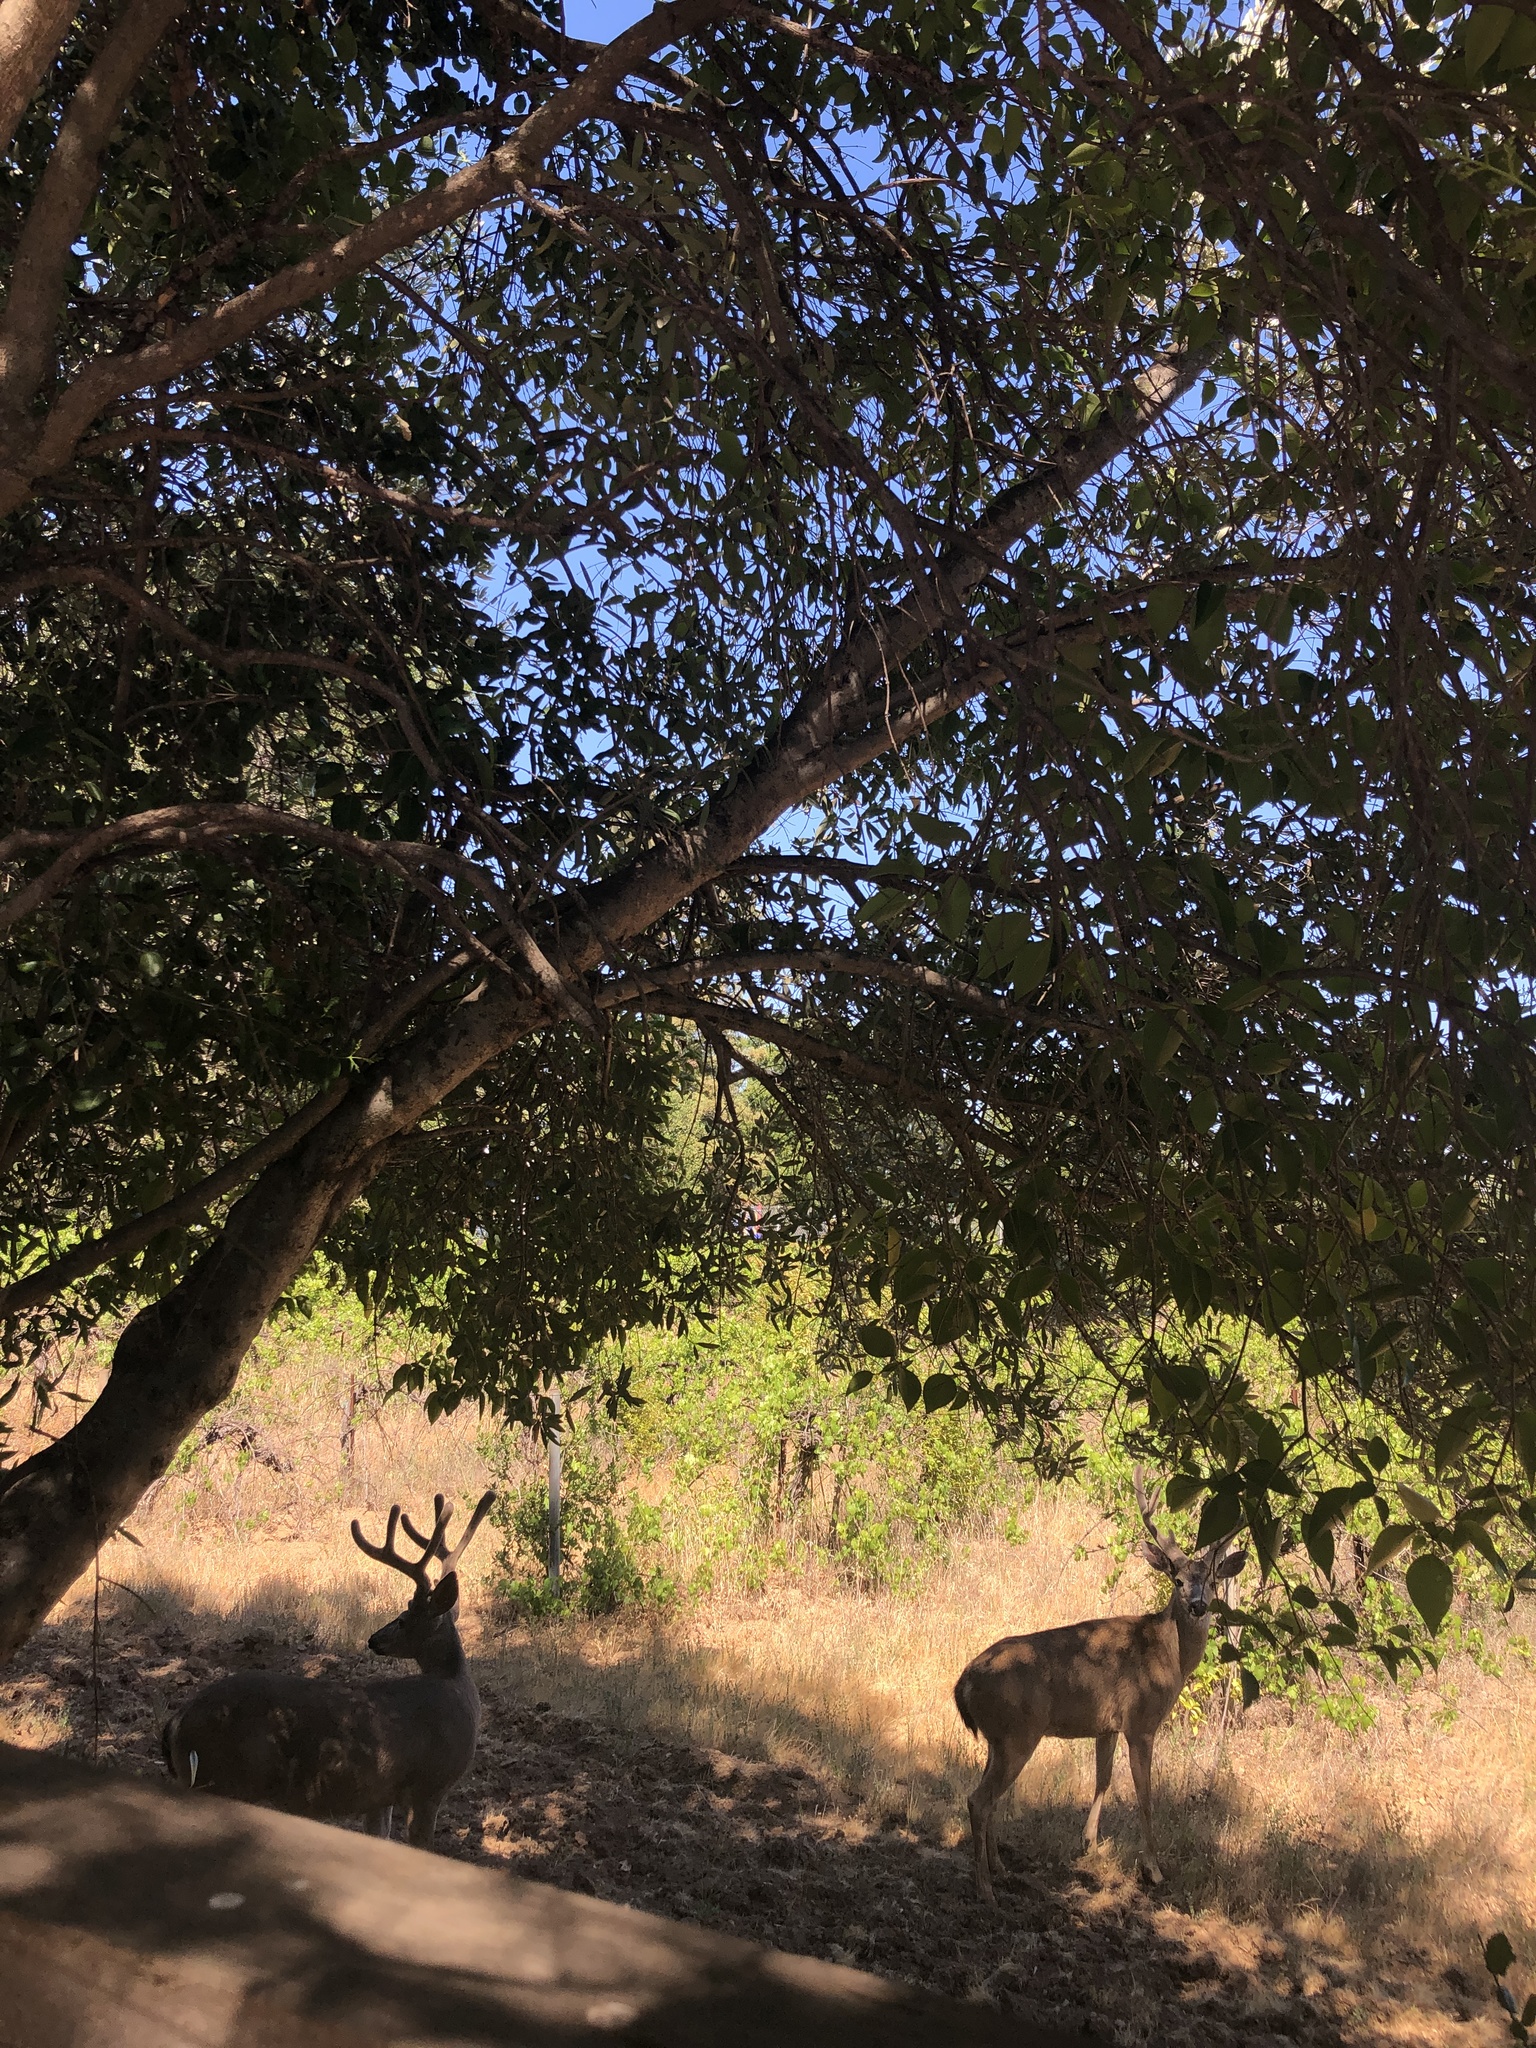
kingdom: Animalia
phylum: Chordata
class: Mammalia
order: Artiodactyla
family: Cervidae
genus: Odocoileus
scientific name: Odocoileus hemionus
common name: Mule deer
